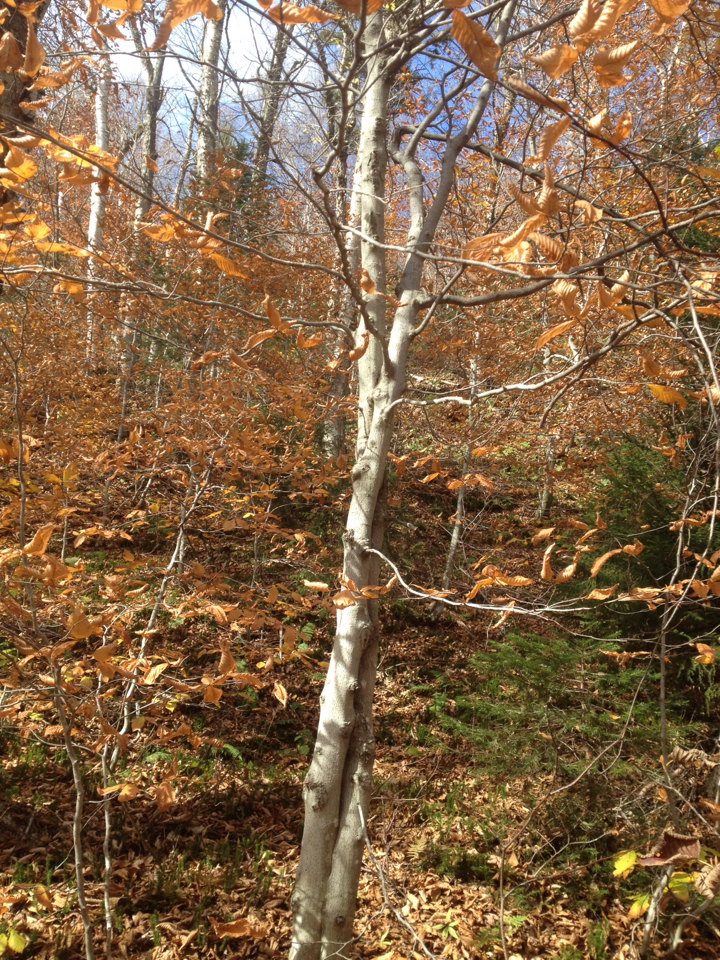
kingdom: Plantae
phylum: Tracheophyta
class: Magnoliopsida
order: Fagales
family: Fagaceae
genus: Fagus
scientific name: Fagus grandifolia
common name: American beech
